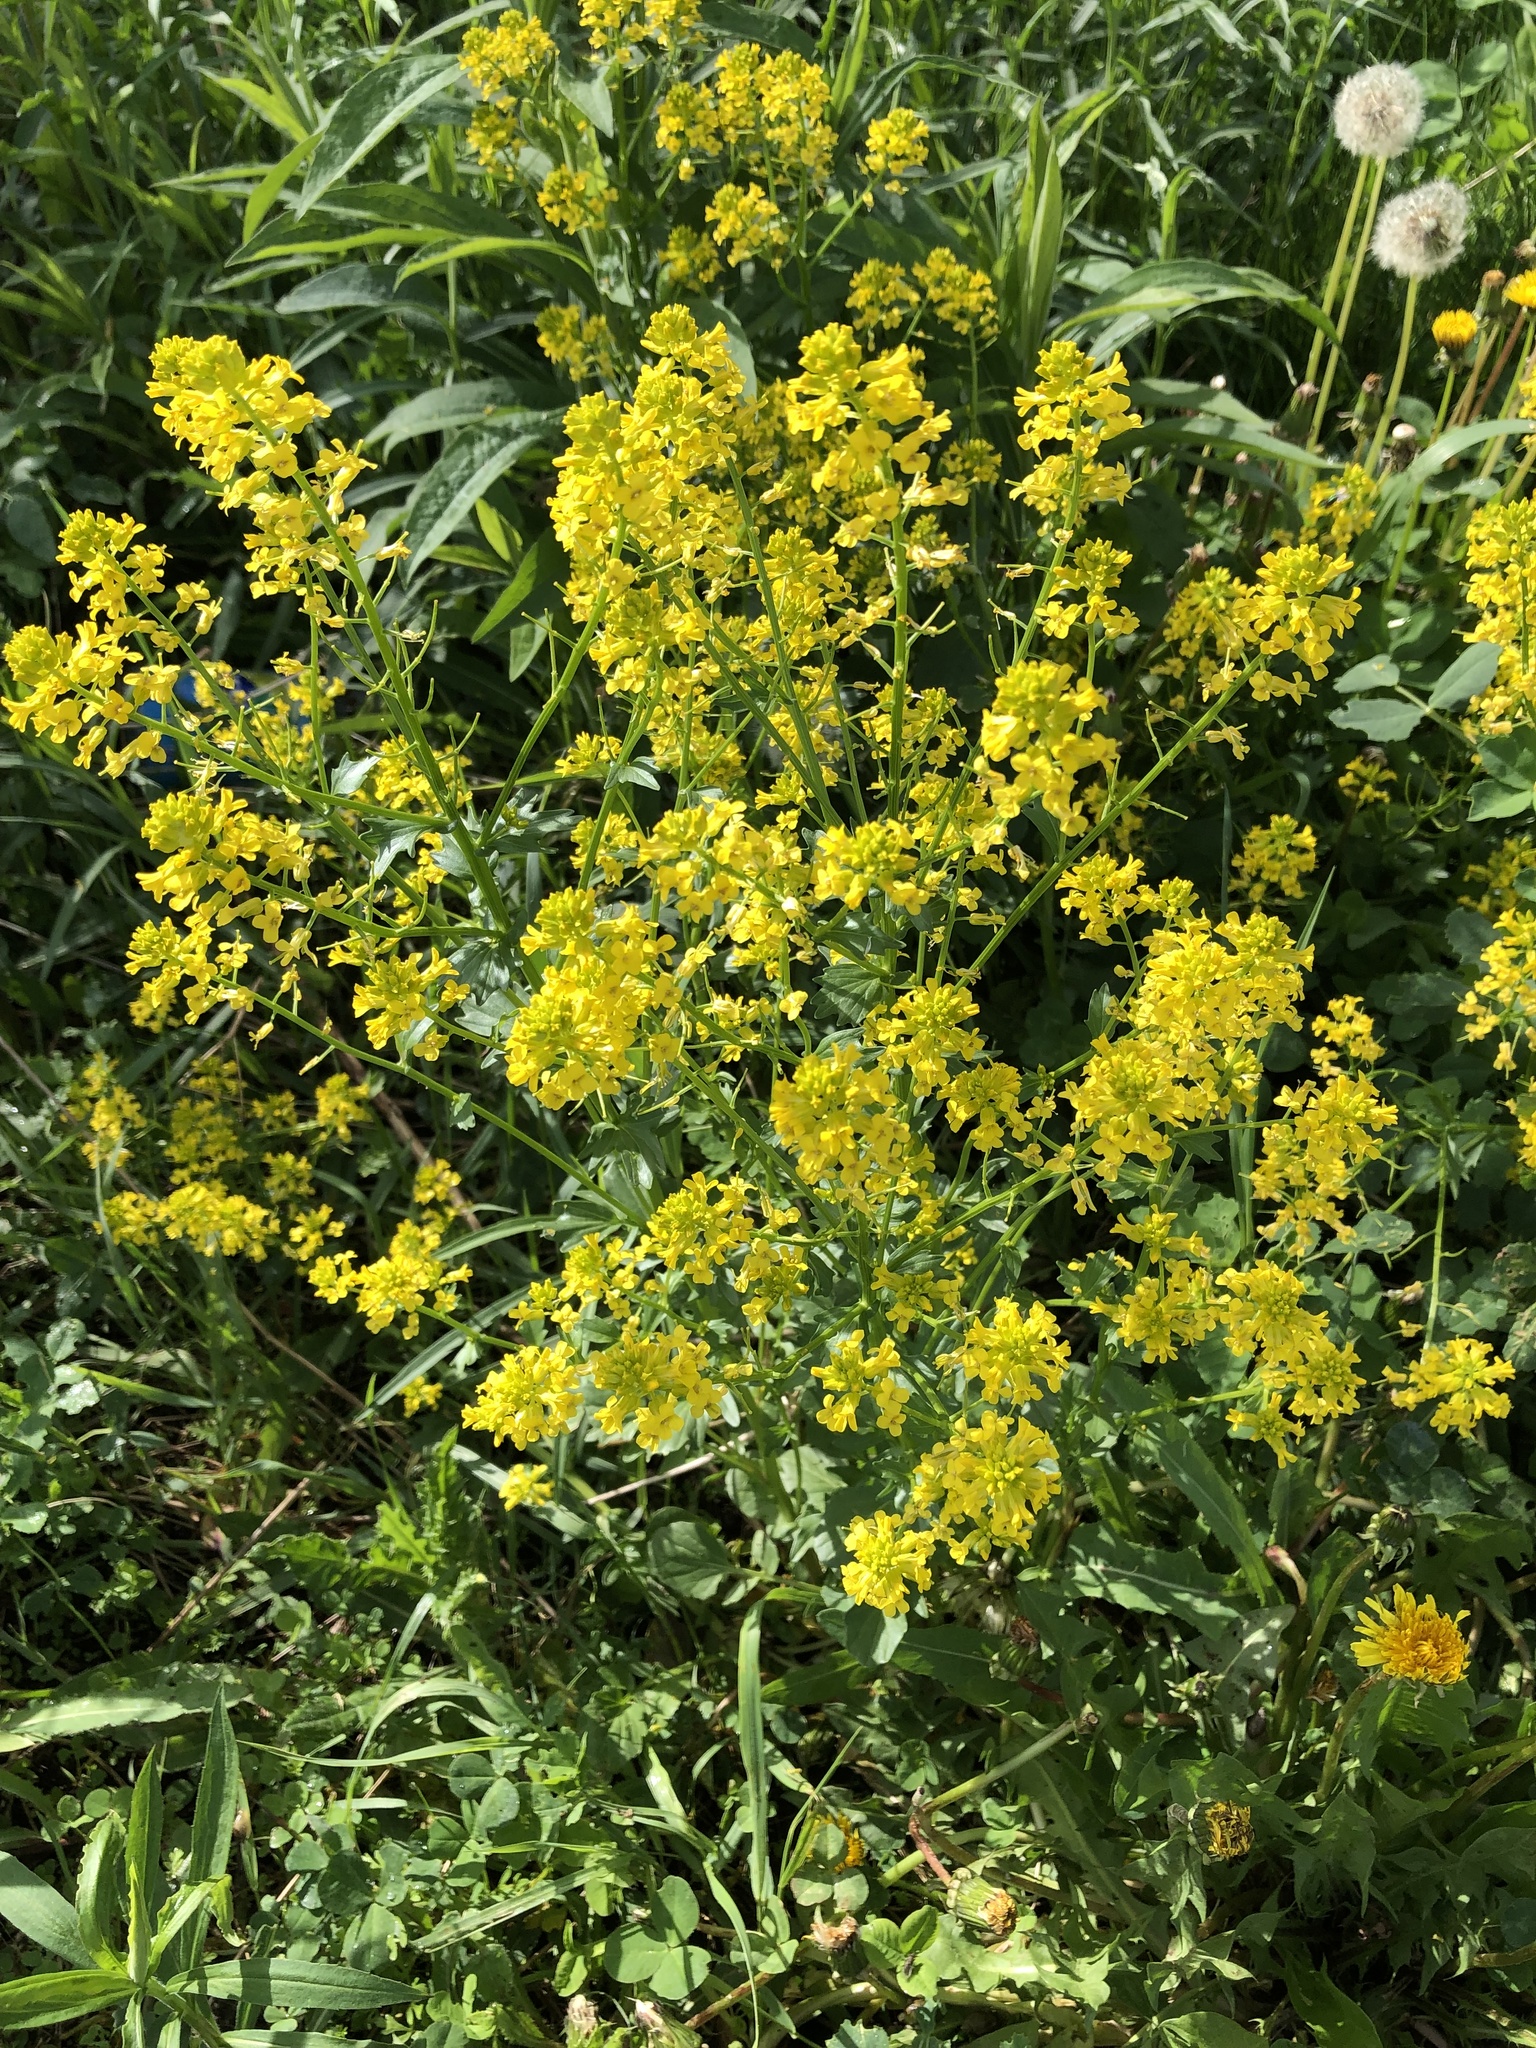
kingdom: Plantae
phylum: Tracheophyta
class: Magnoliopsida
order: Brassicales
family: Brassicaceae
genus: Barbarea
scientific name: Barbarea vulgaris
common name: Cressy-greens
